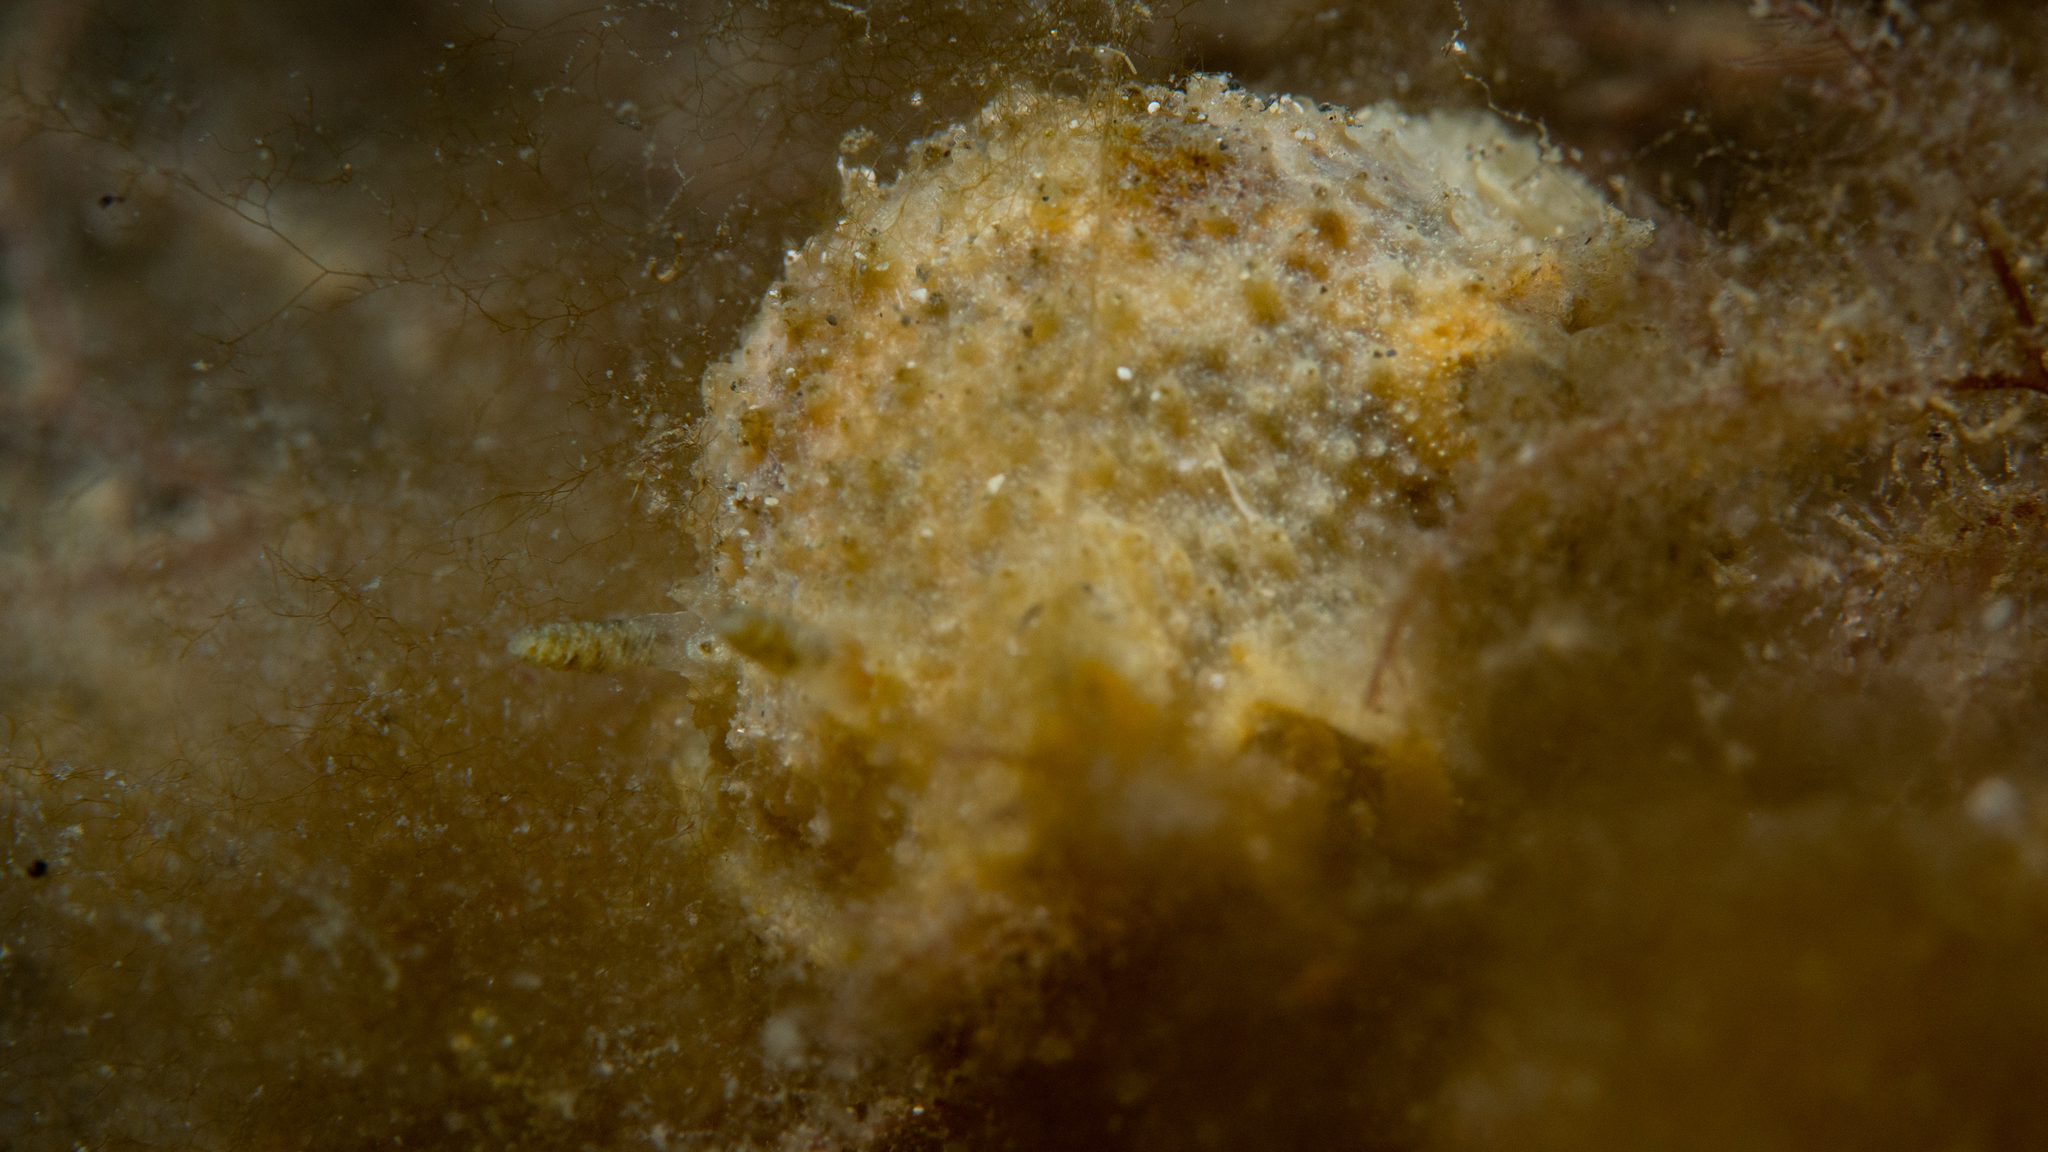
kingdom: Animalia
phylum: Mollusca
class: Gastropoda
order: Nudibranchia
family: Dorididae
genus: Doris
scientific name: Doris cameroni
